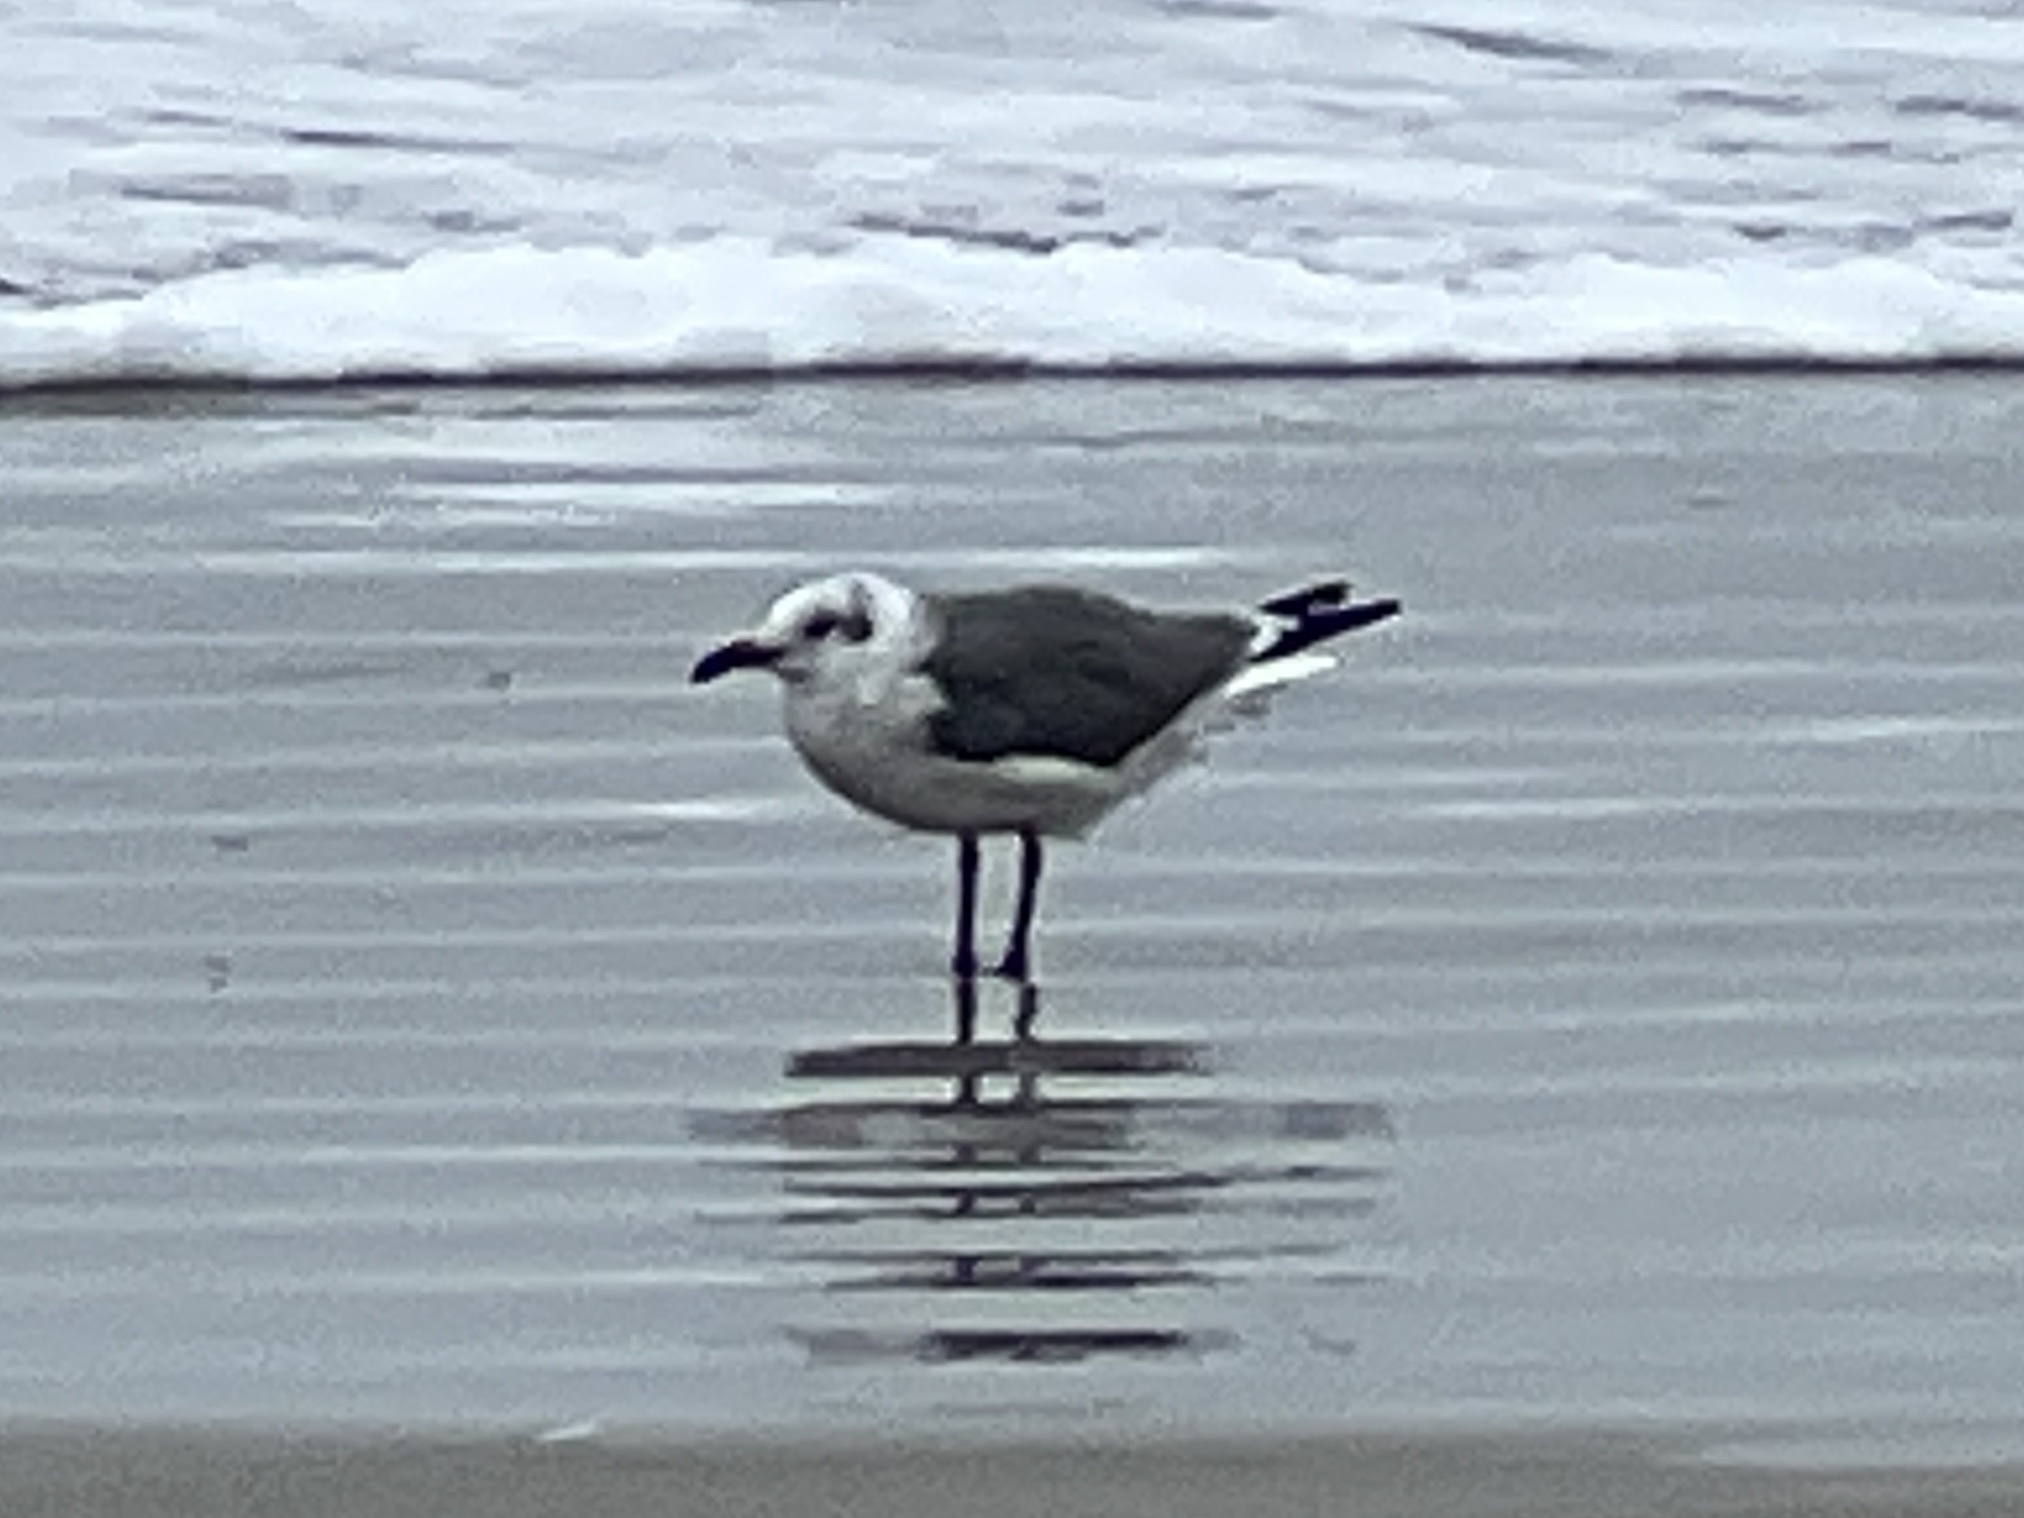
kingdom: Animalia
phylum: Chordata
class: Aves
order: Charadriiformes
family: Laridae
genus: Leucophaeus
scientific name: Leucophaeus atricilla
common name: Laughing gull
